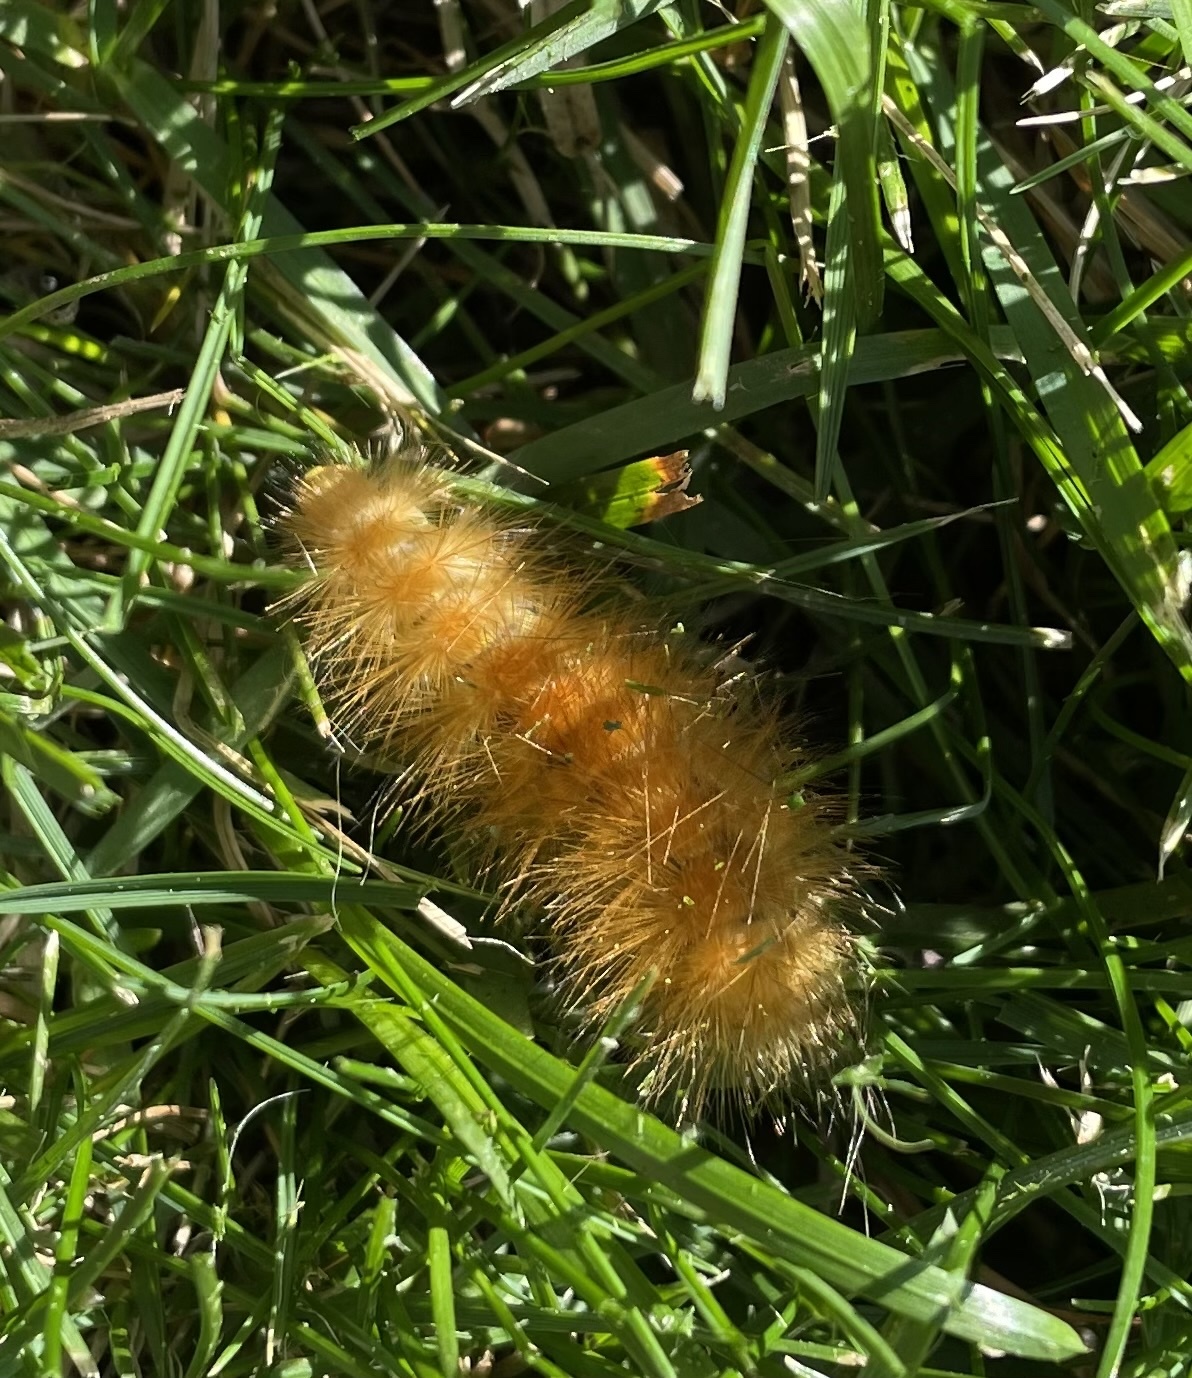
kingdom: Animalia
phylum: Arthropoda
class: Insecta
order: Lepidoptera
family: Erebidae
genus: Spilosoma
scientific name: Spilosoma virginica
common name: Virginia tiger moth
